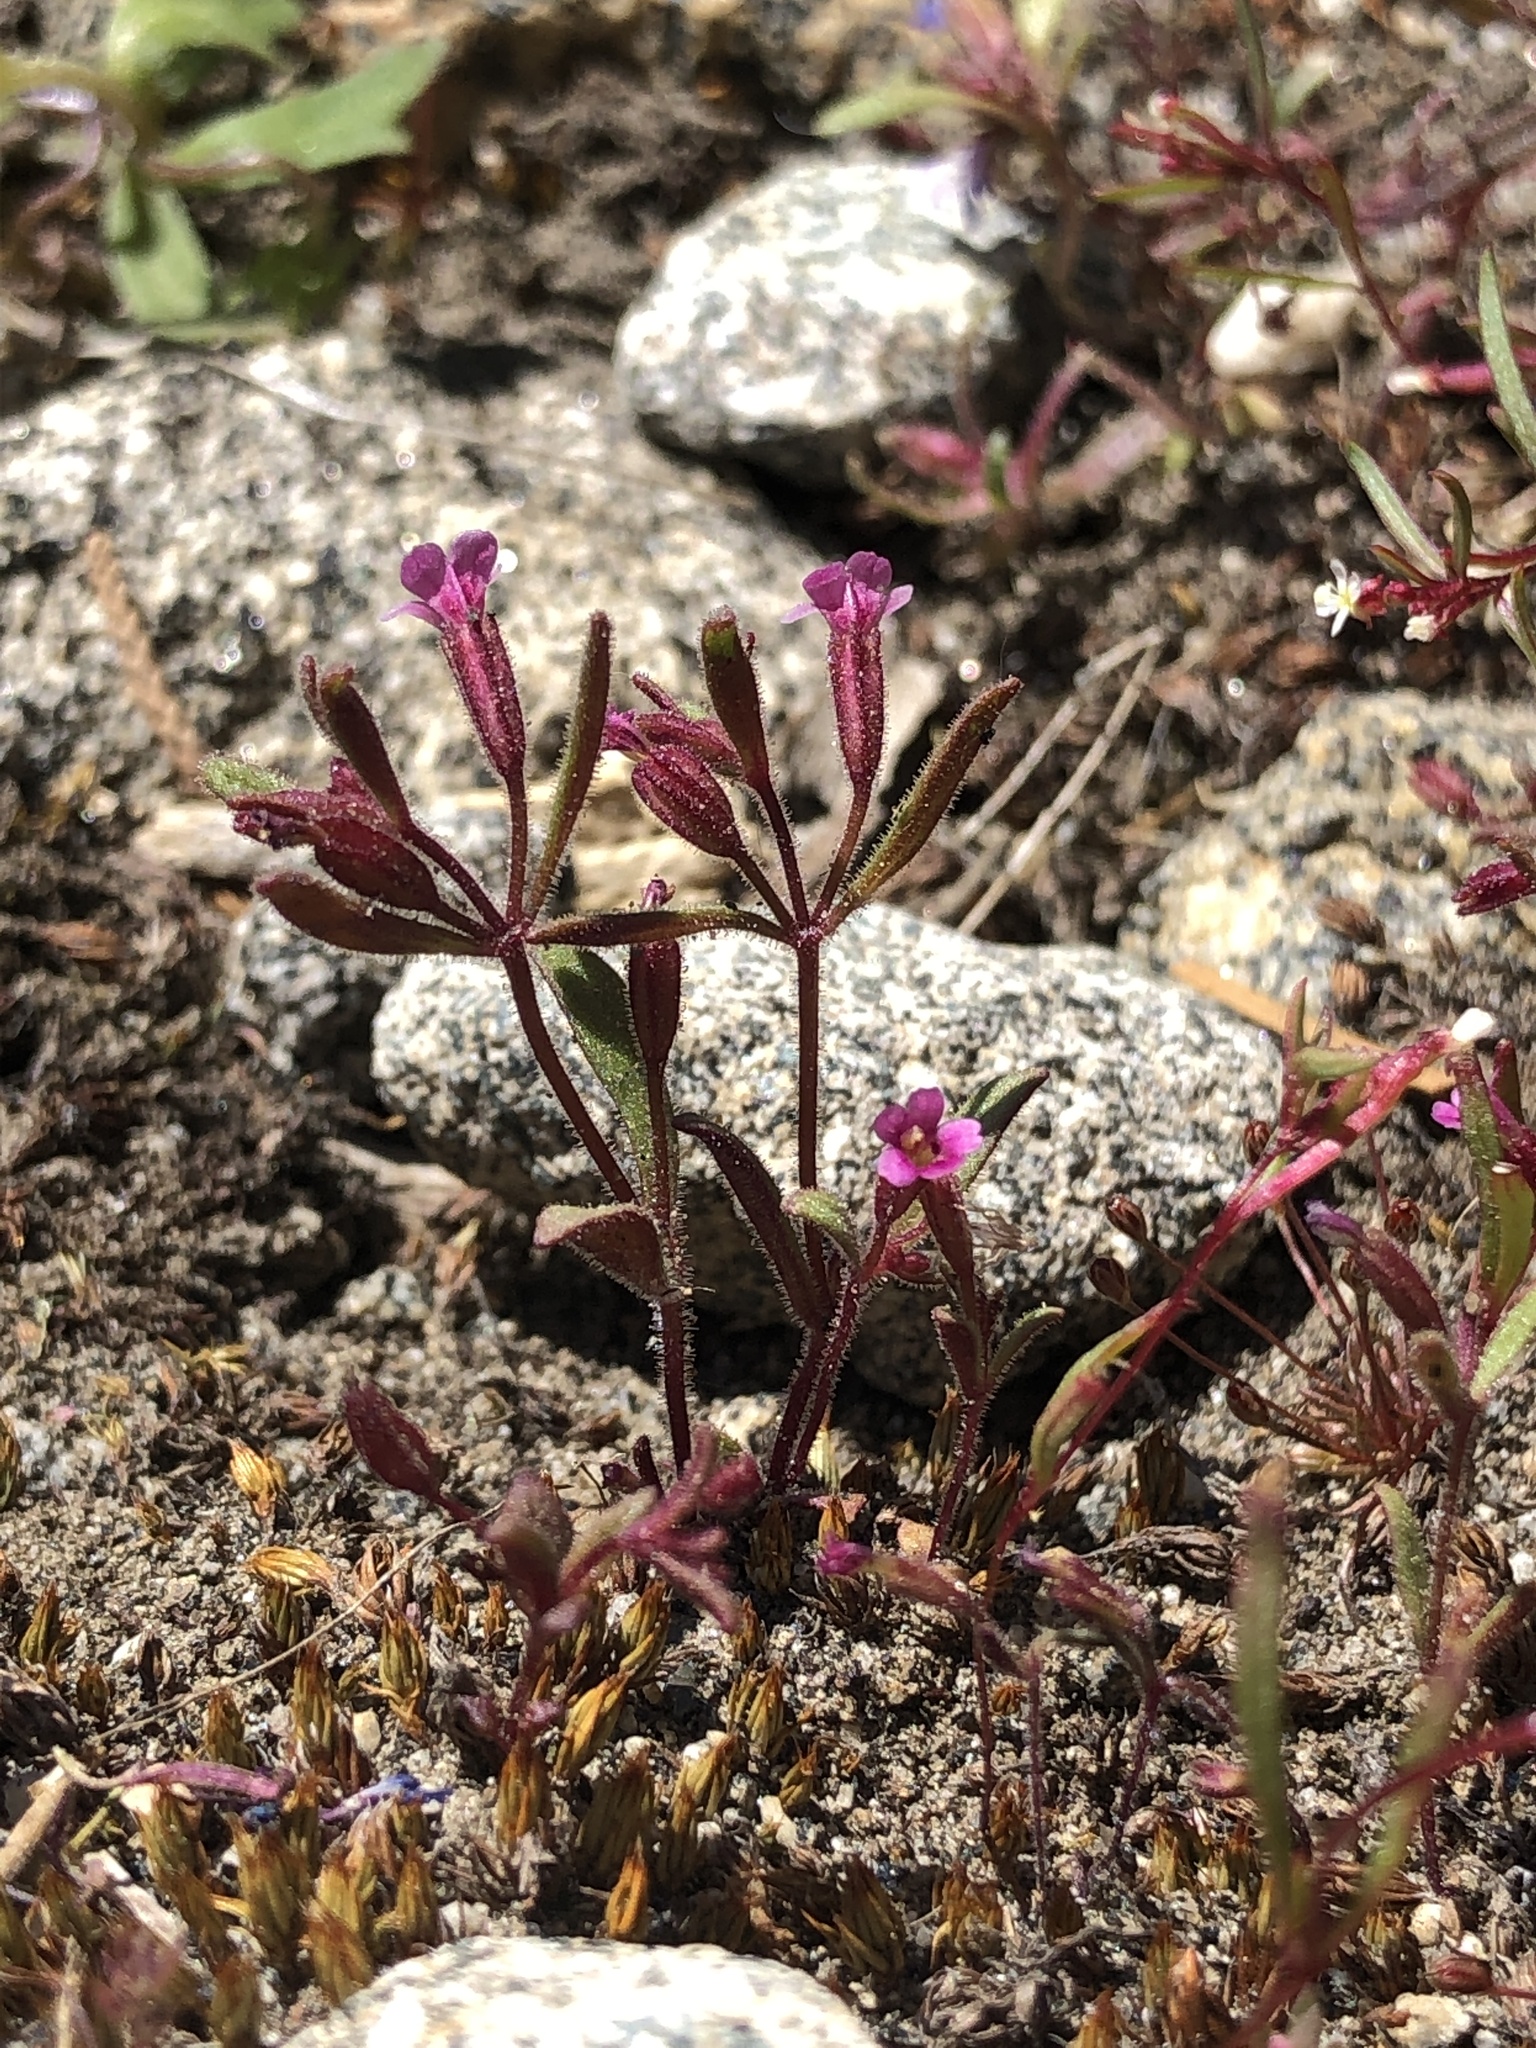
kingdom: Plantae
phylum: Tracheophyta
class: Magnoliopsida
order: Lamiales
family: Phrymaceae
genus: Erythranthe
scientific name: Erythranthe breweri
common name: Brewer's monkeyflower
